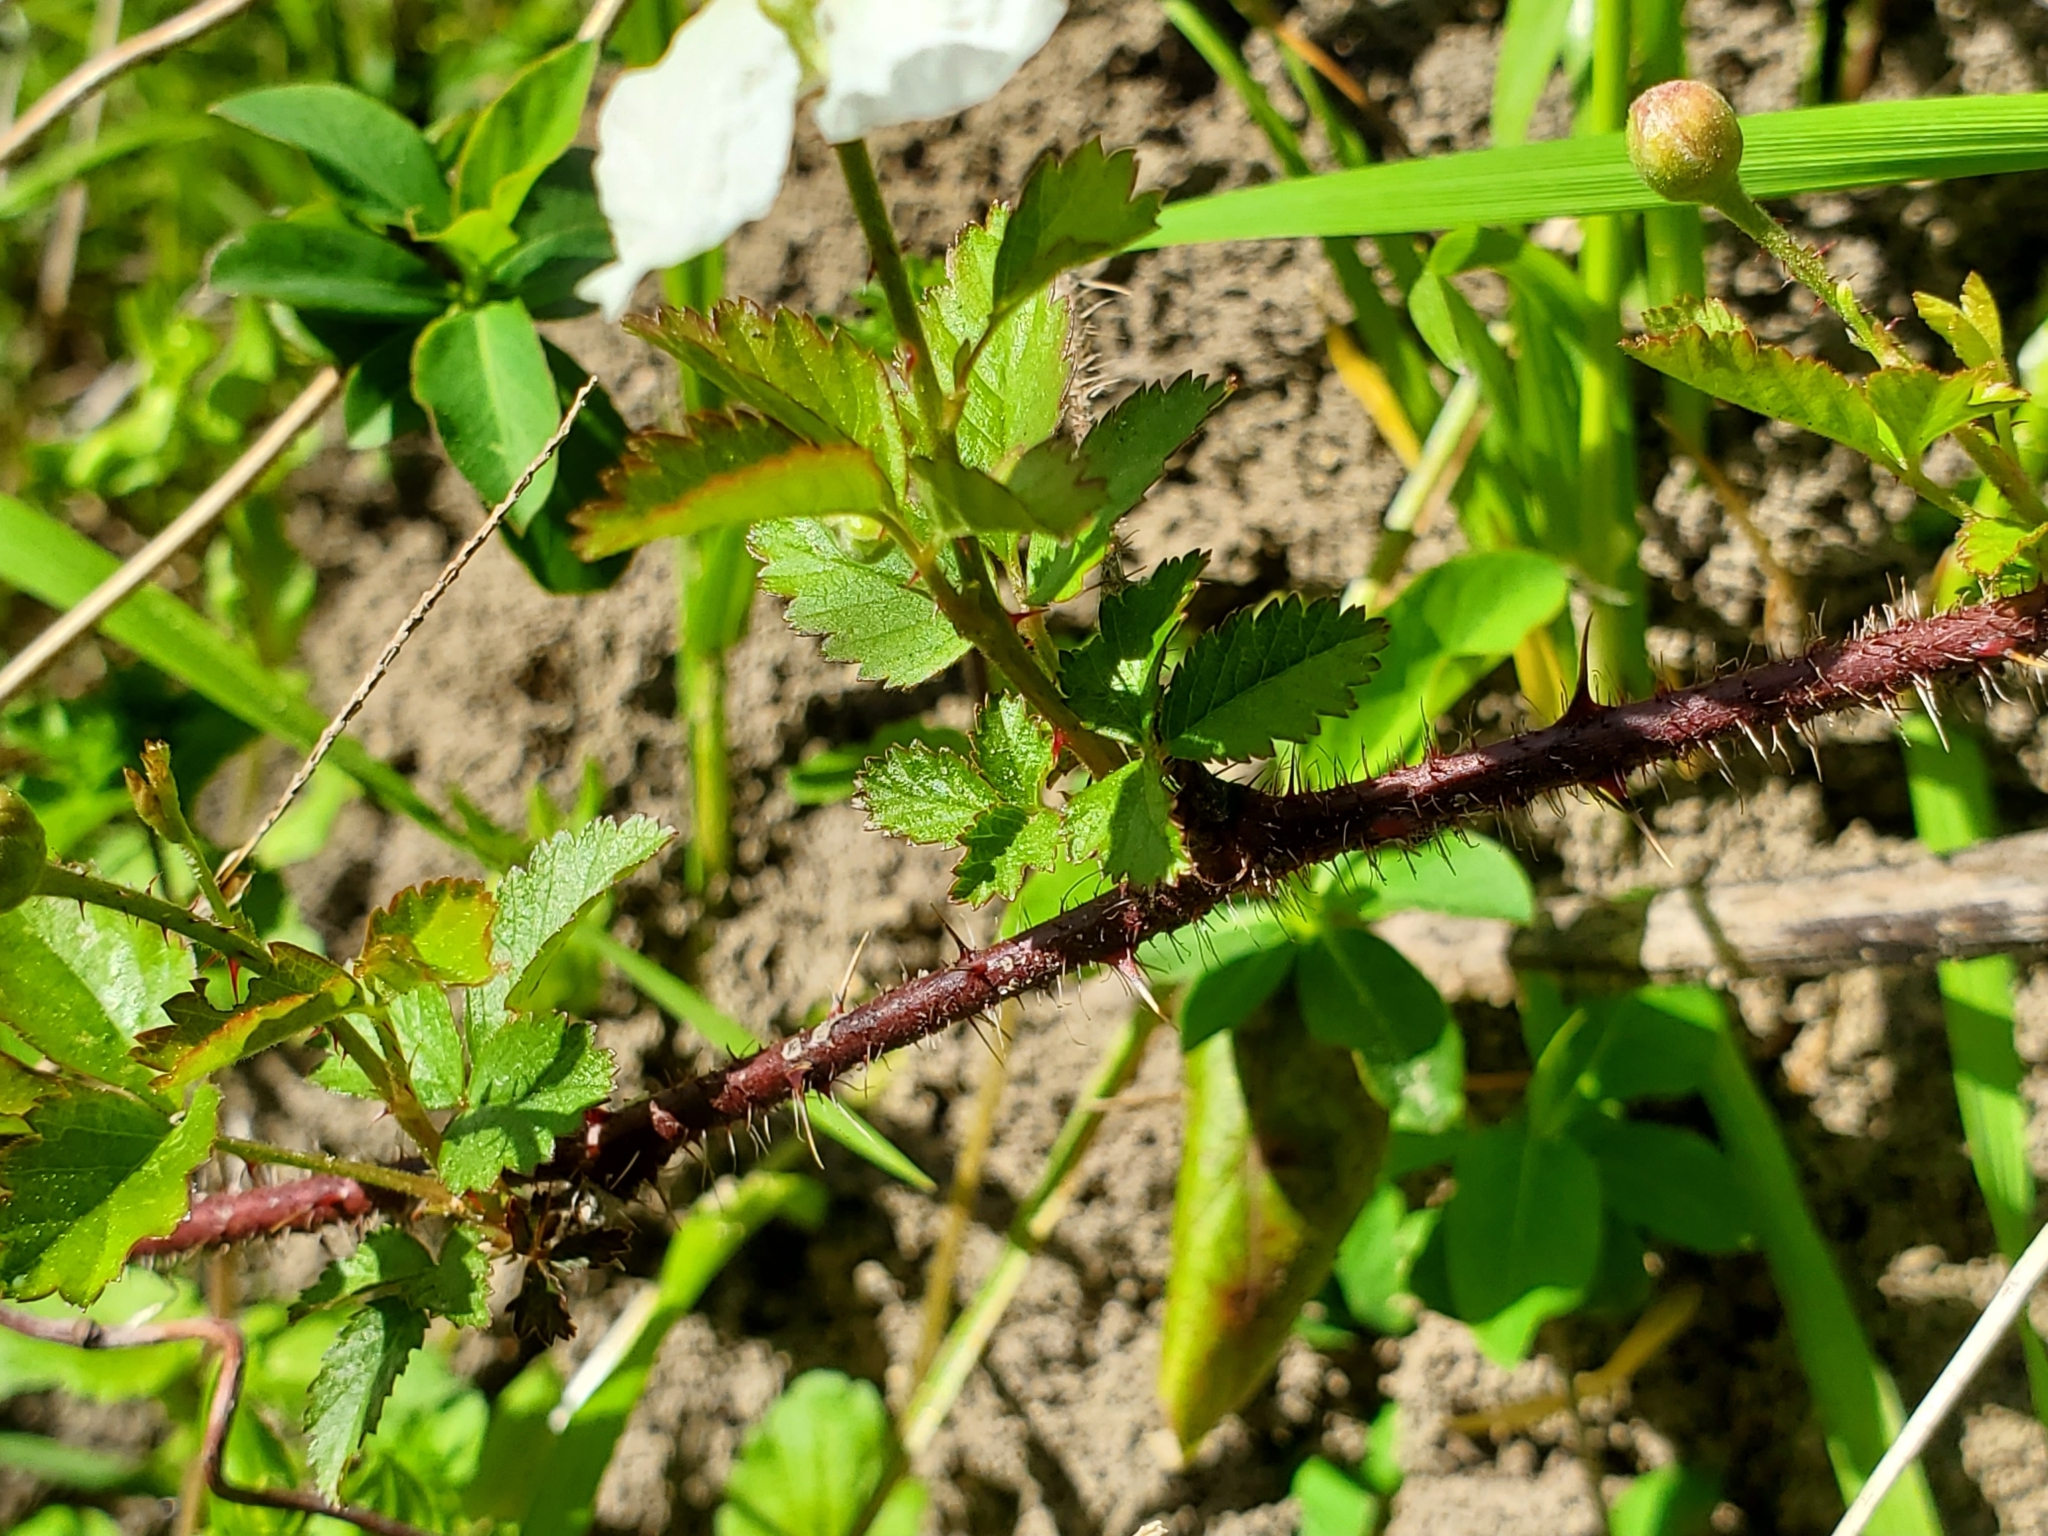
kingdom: Plantae
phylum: Tracheophyta
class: Magnoliopsida
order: Rosales
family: Rosaceae
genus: Rubus
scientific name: Rubus trivialis
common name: Southern dewberry
